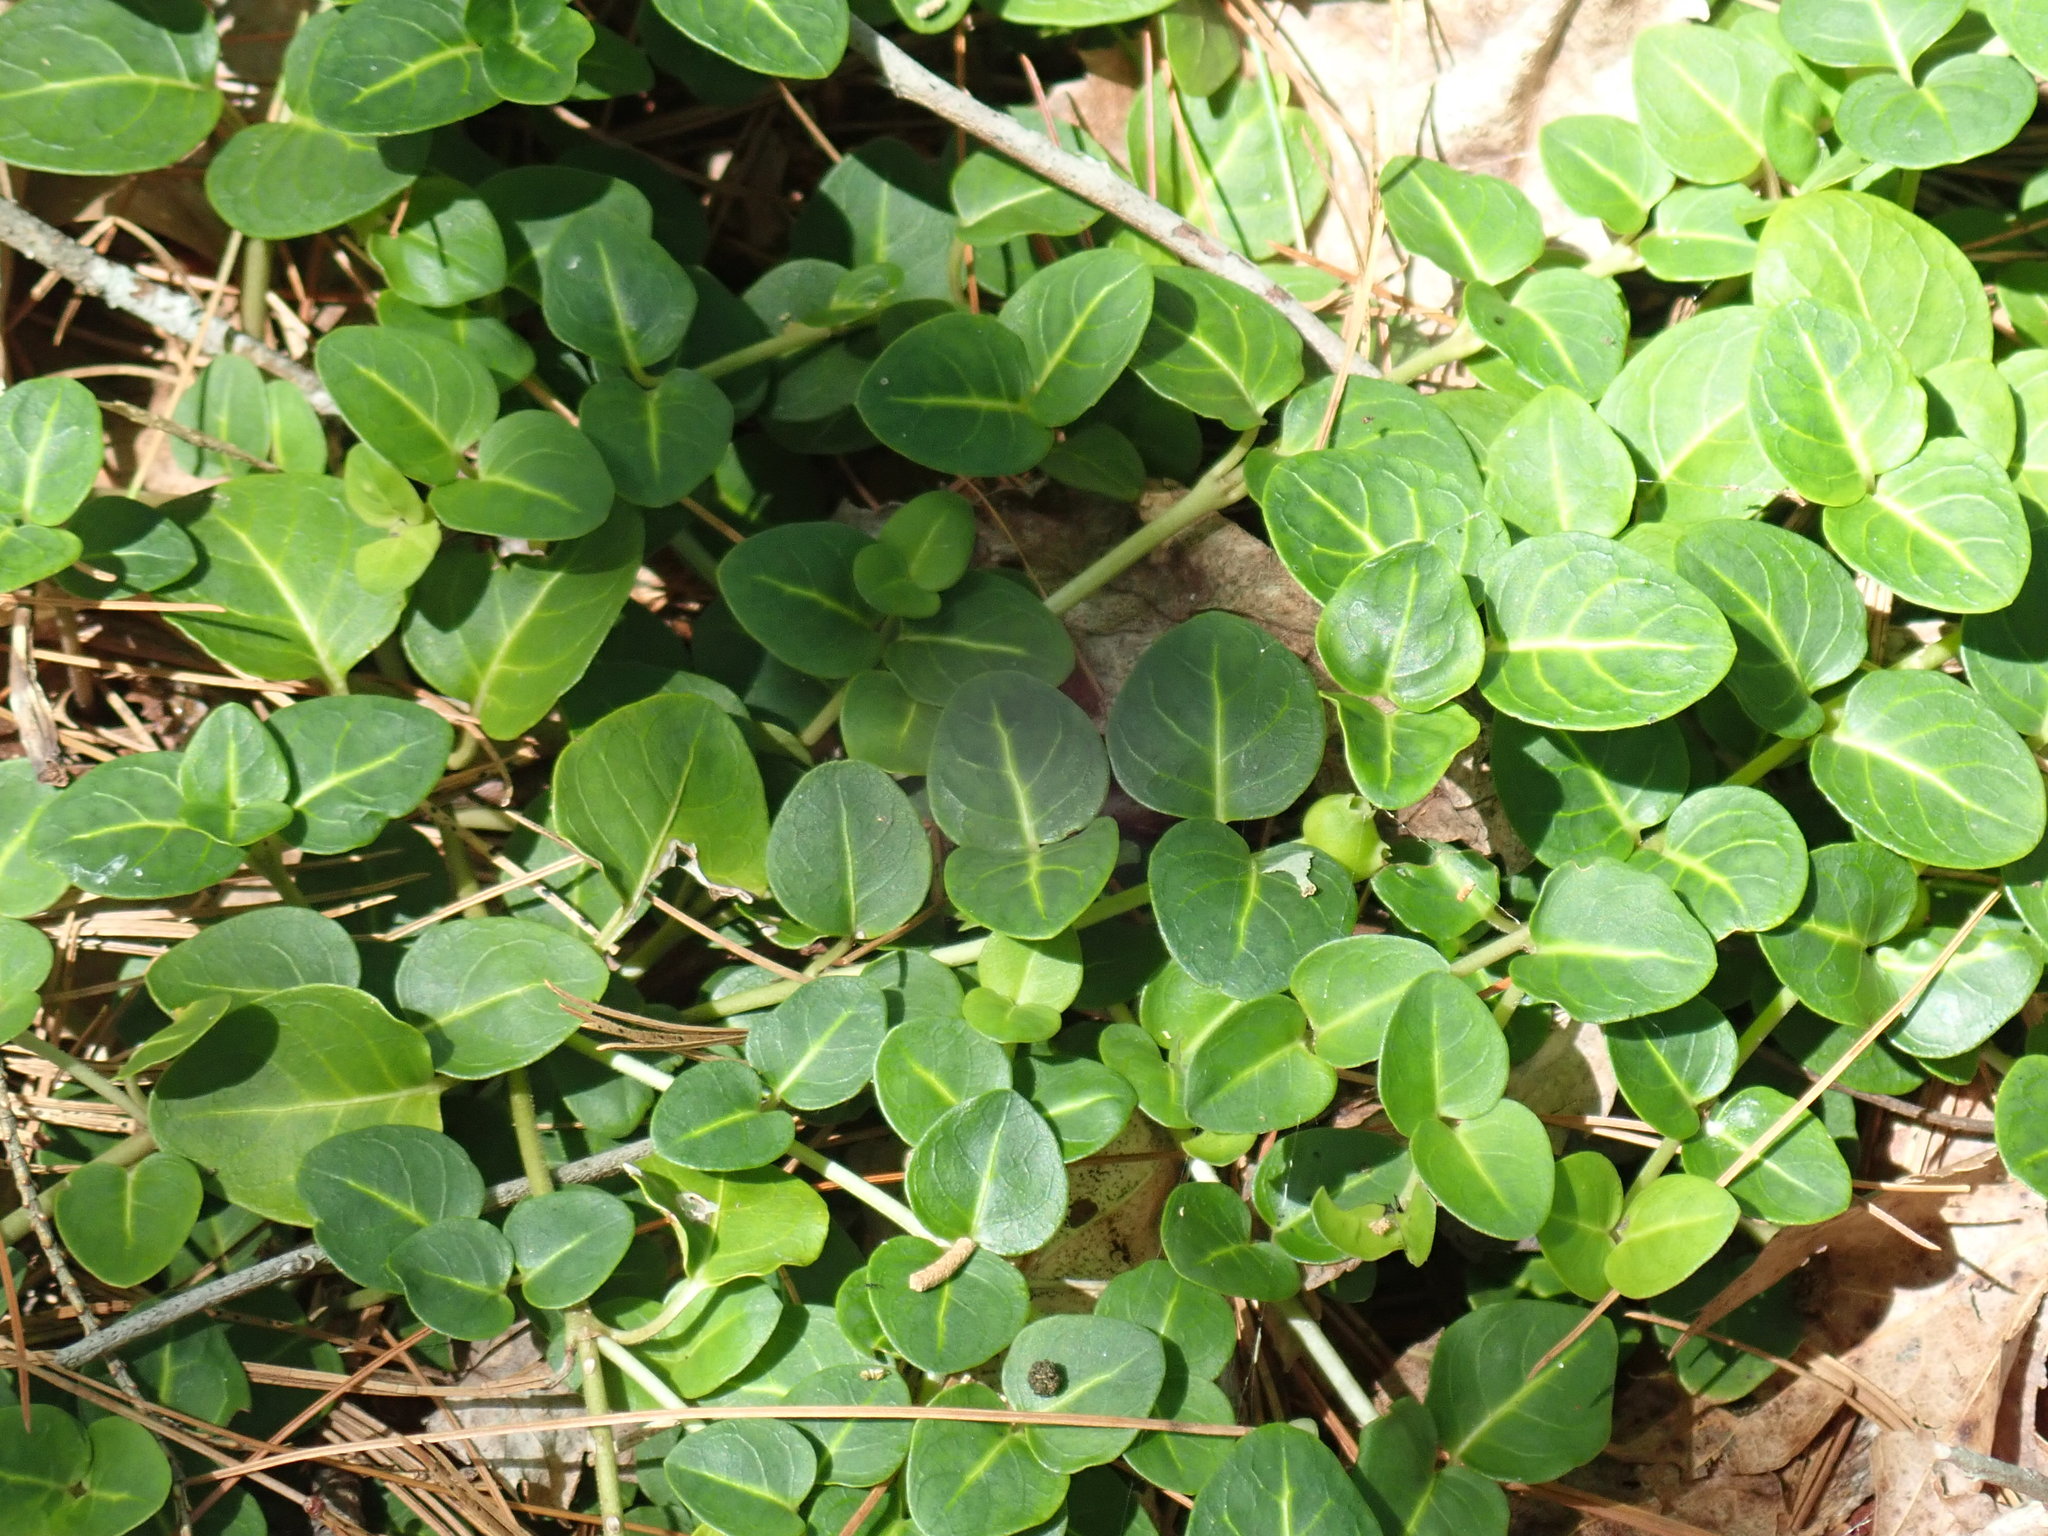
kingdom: Plantae
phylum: Tracheophyta
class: Magnoliopsida
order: Gentianales
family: Rubiaceae
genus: Mitchella
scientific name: Mitchella repens
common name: Partridge-berry
